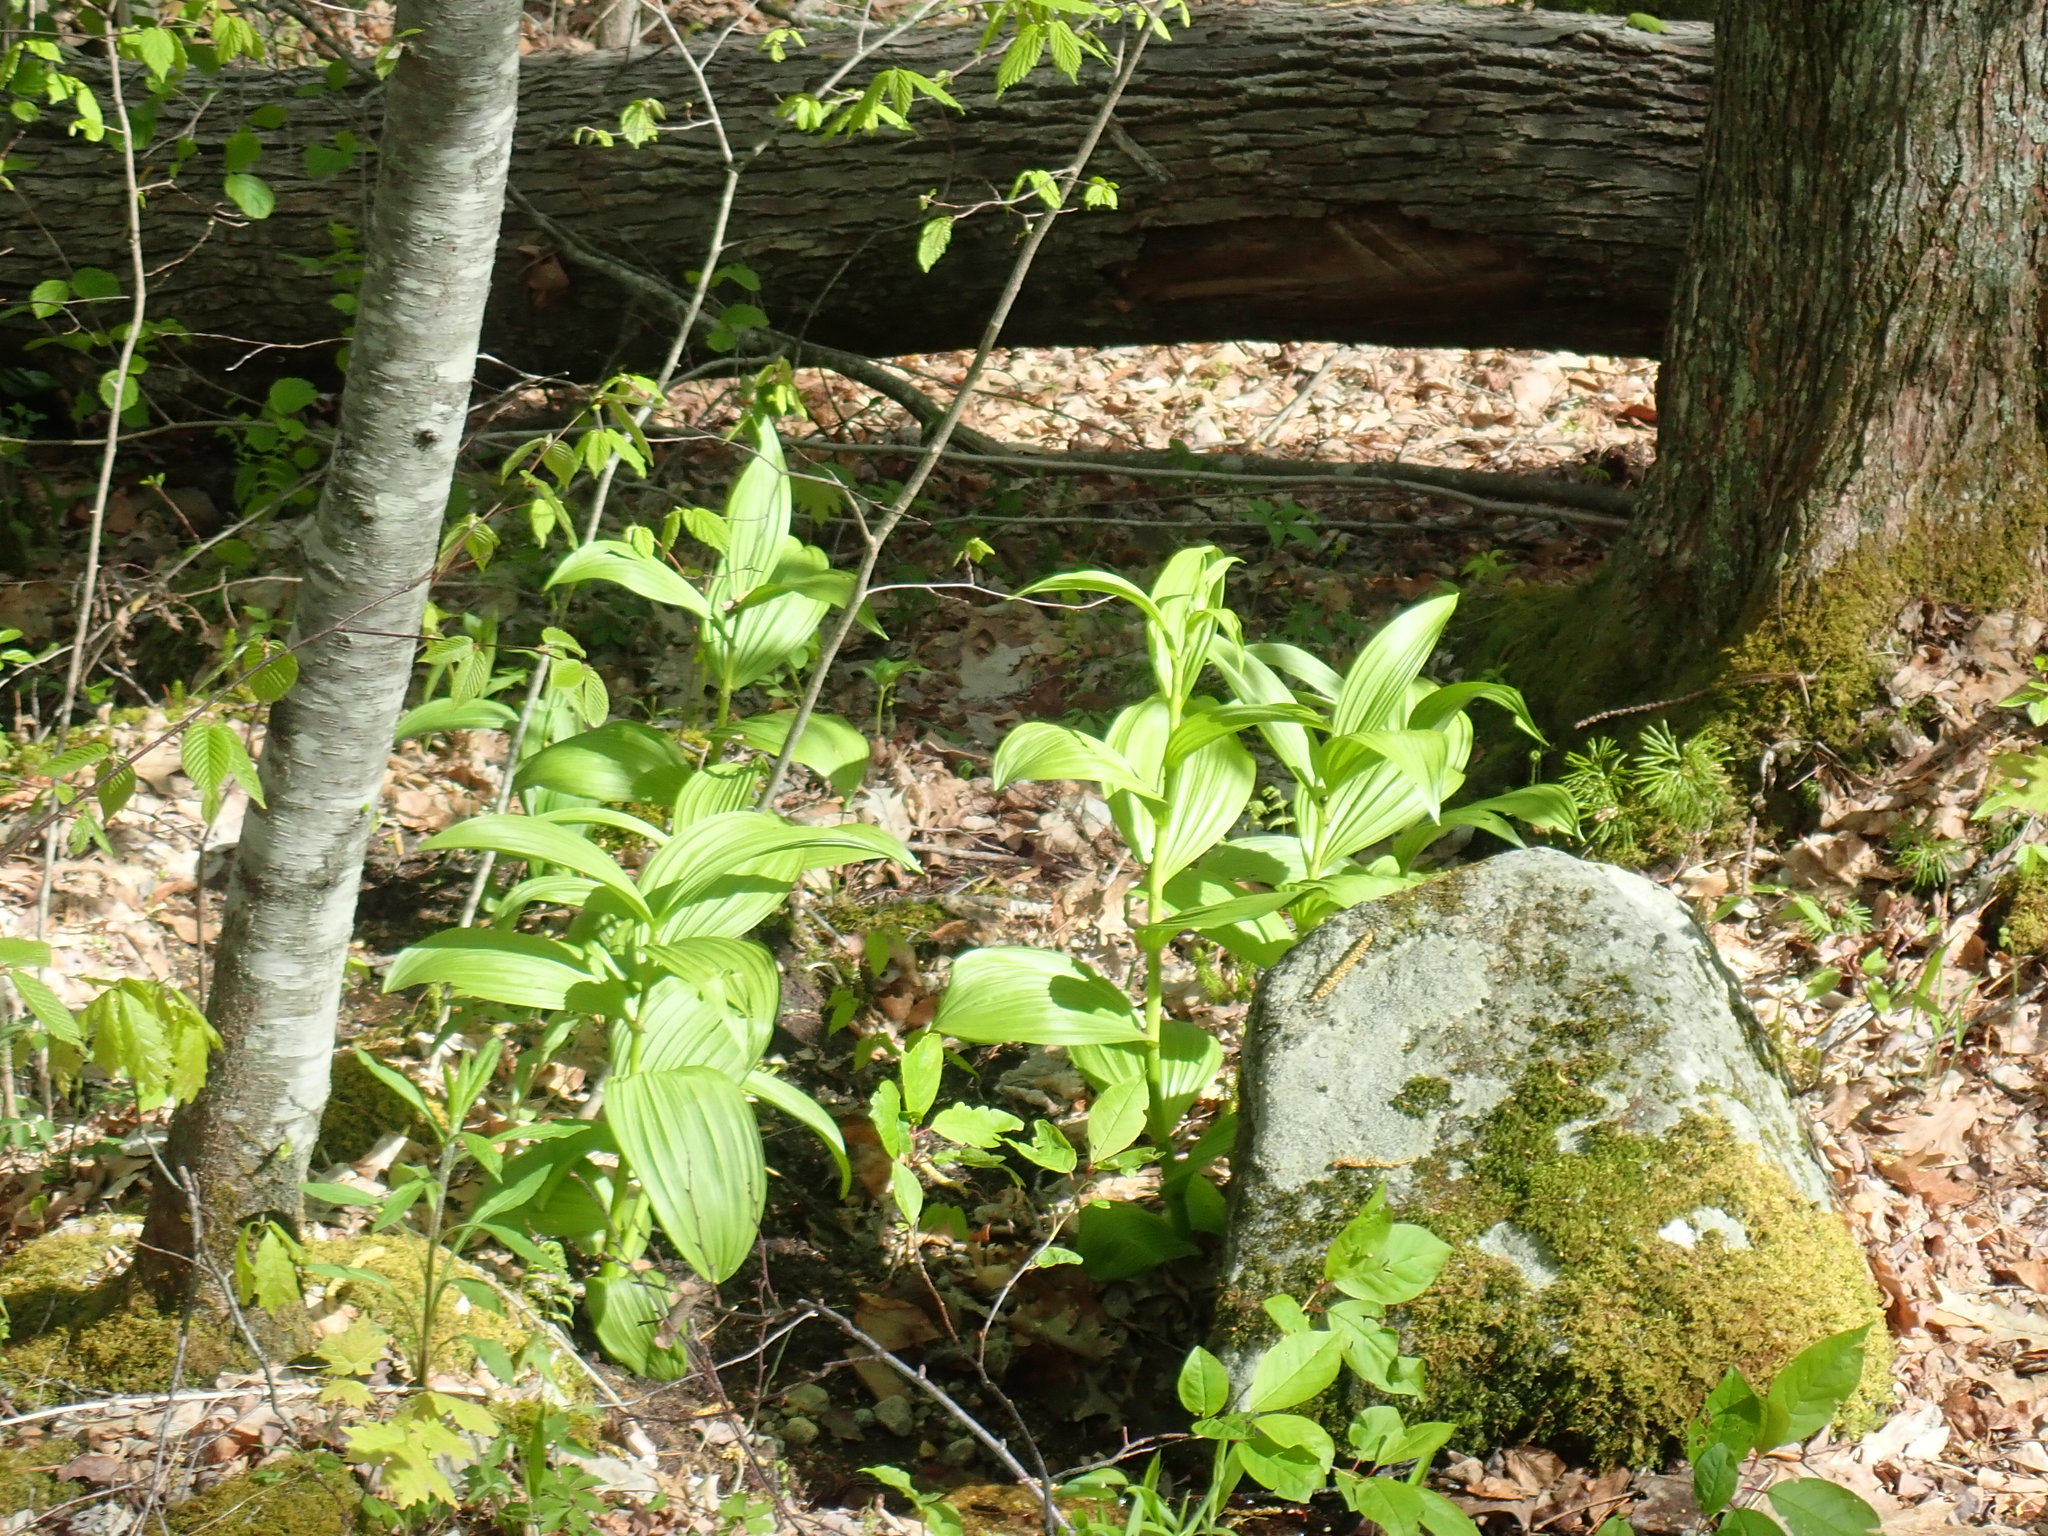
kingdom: Plantae
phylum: Tracheophyta
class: Liliopsida
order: Liliales
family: Melanthiaceae
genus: Veratrum
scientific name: Veratrum viride
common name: American false hellebore
